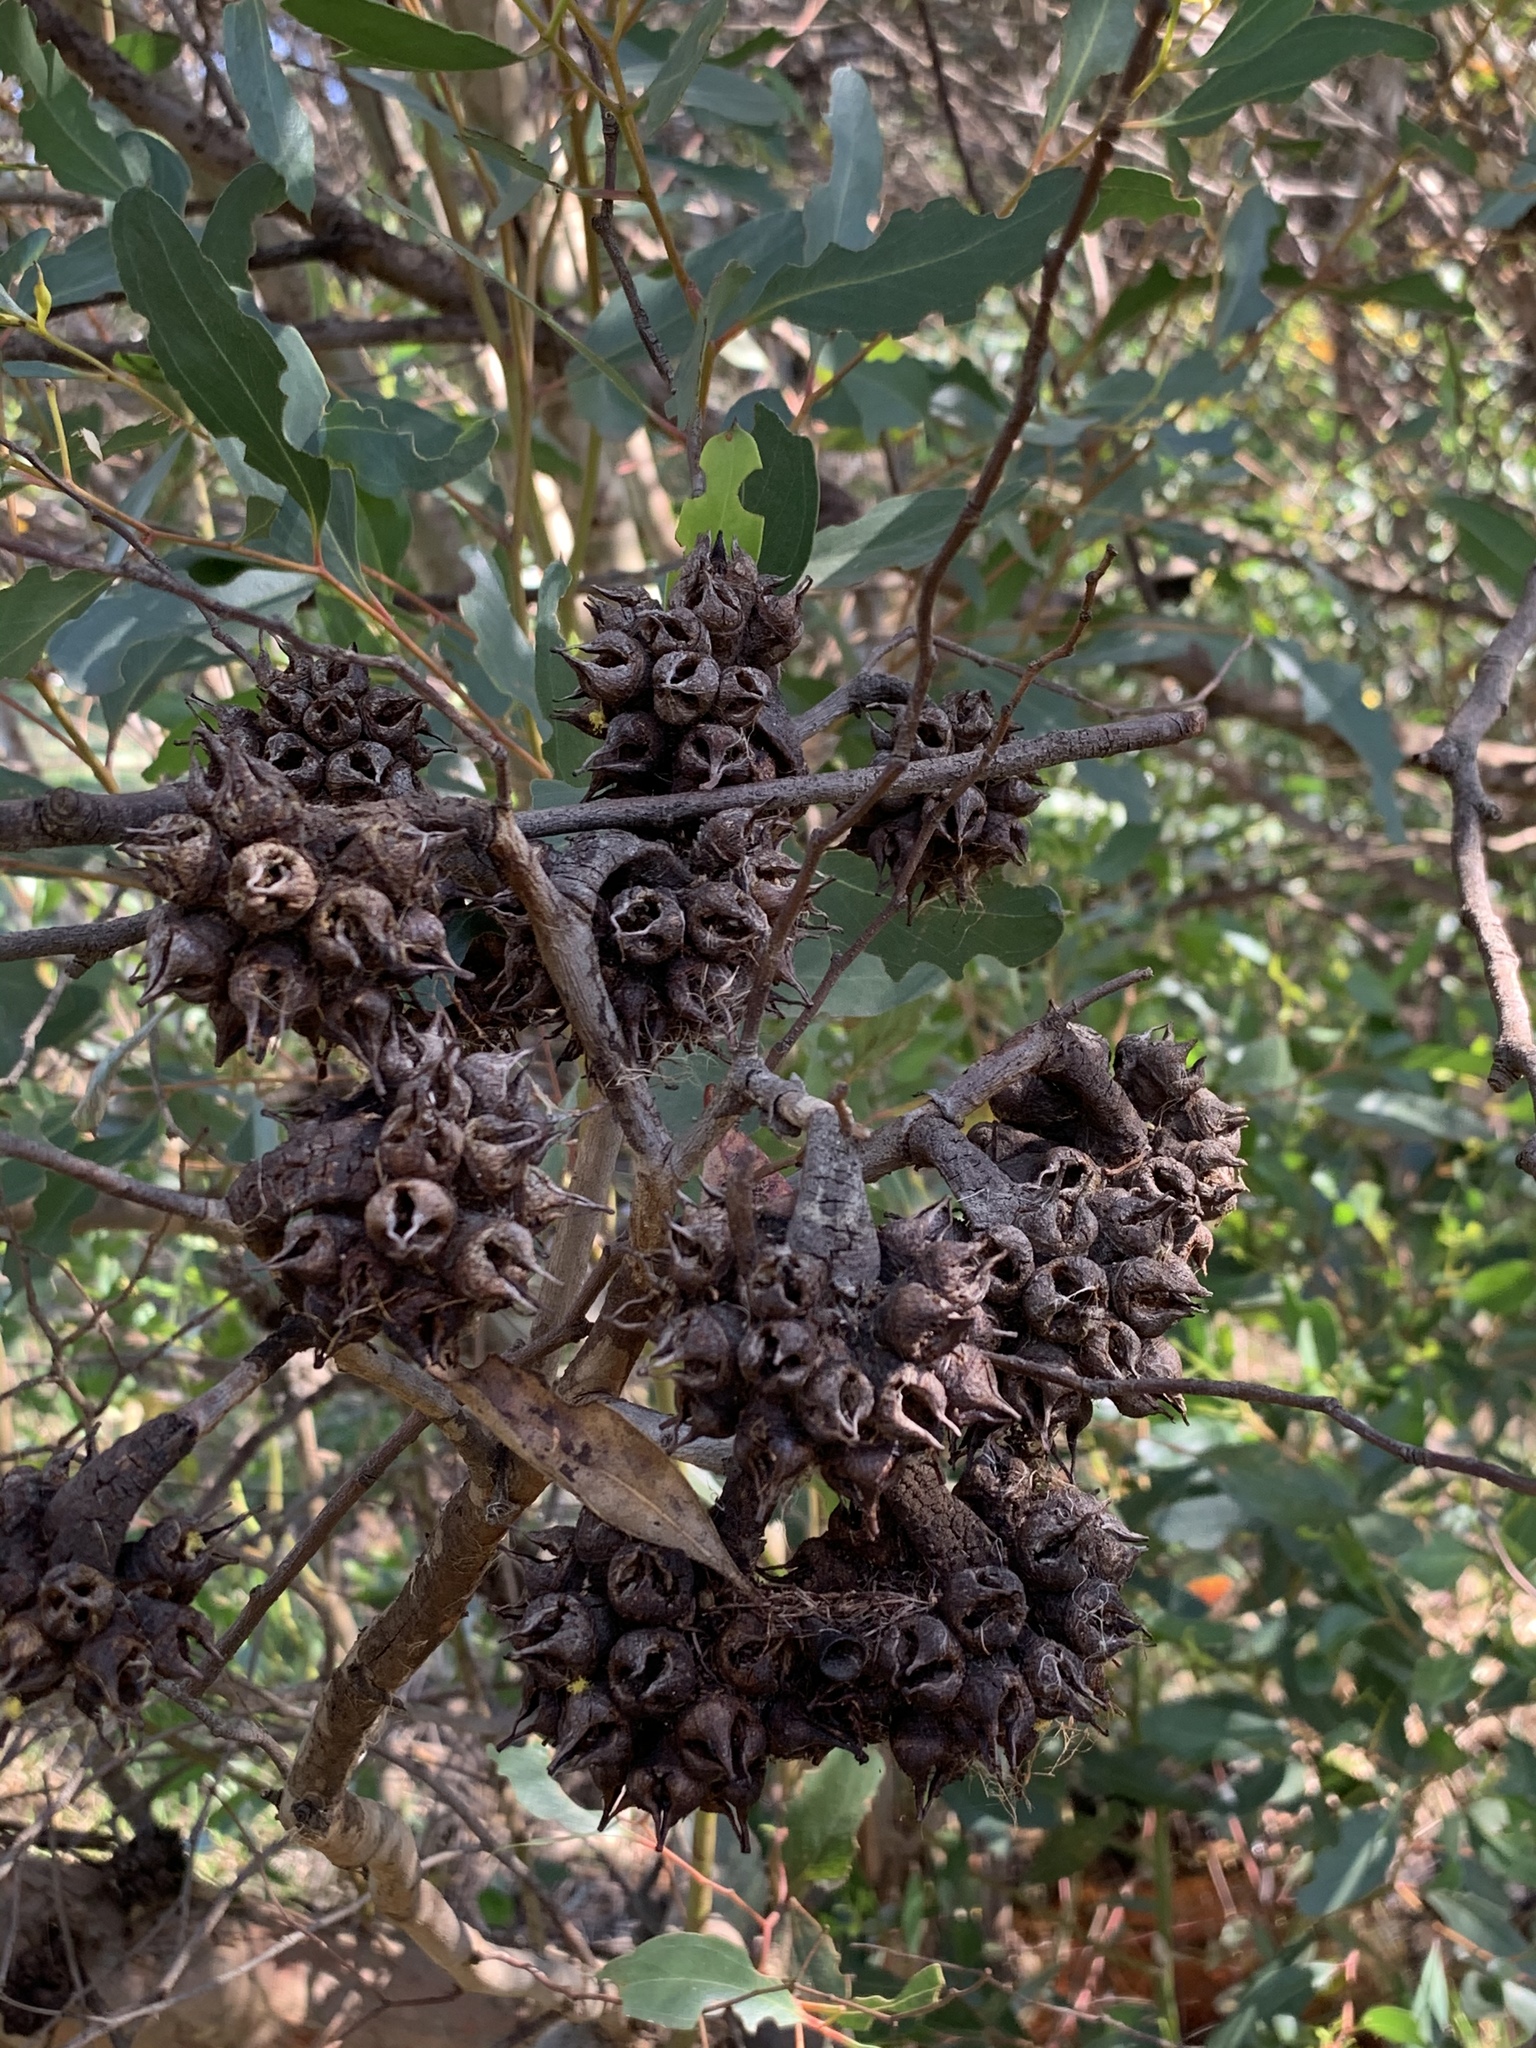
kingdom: Plantae
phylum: Tracheophyta
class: Magnoliopsida
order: Myrtales
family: Myrtaceae
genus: Eucalyptus
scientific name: Eucalyptus conferruminata
